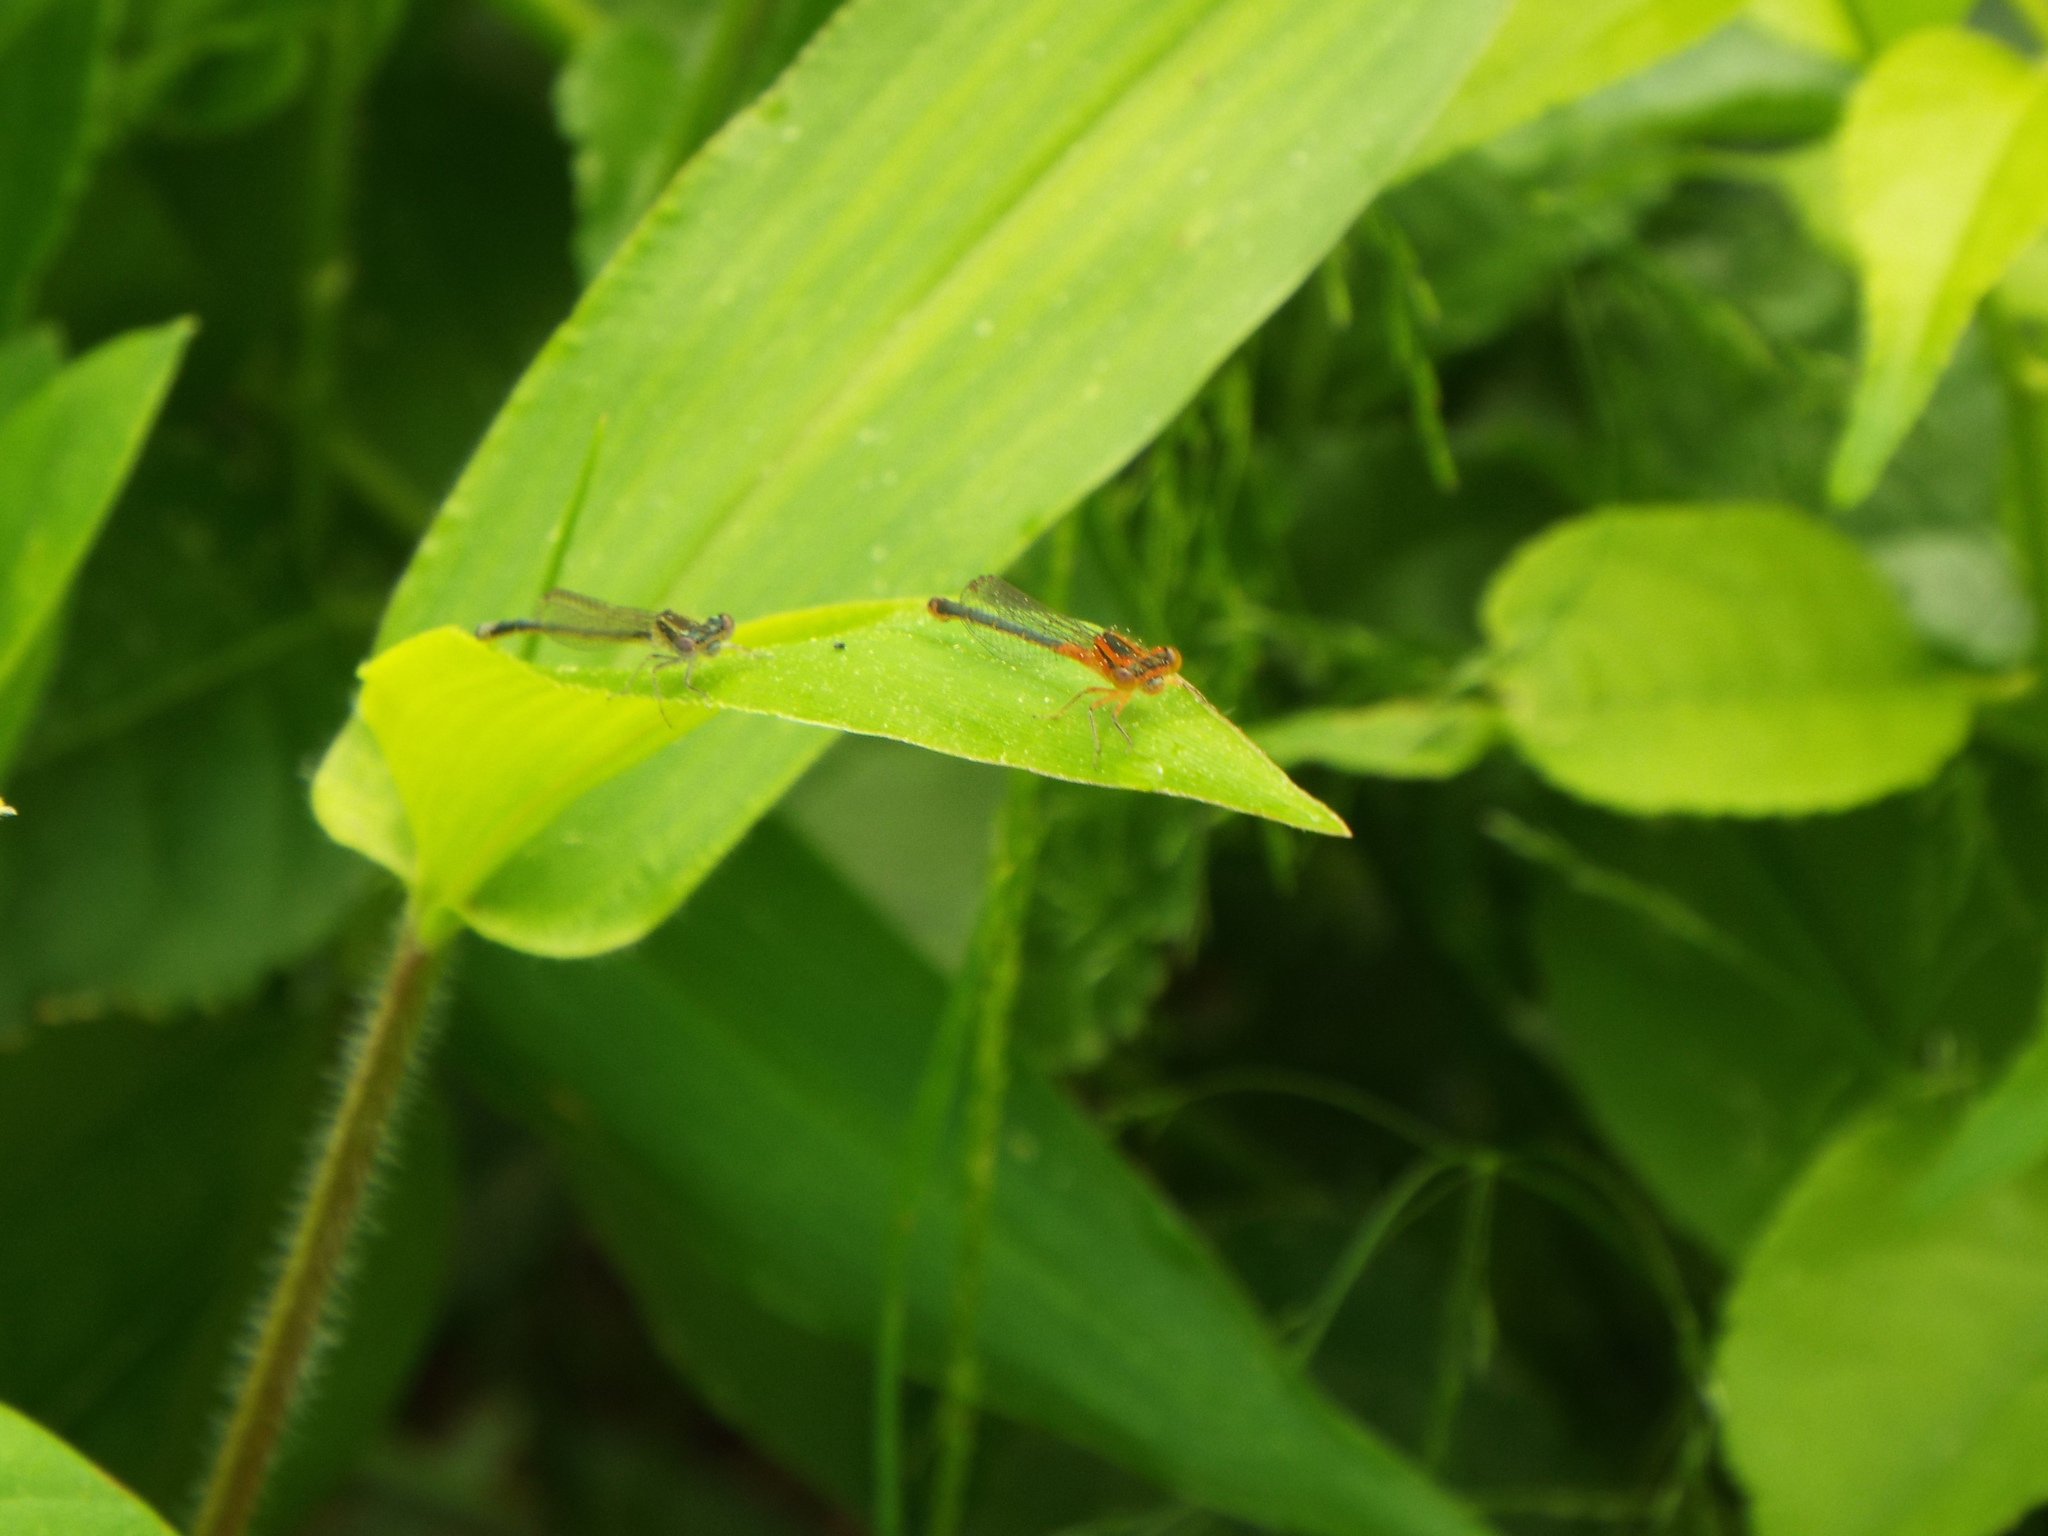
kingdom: Animalia
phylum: Arthropoda
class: Insecta
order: Odonata
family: Coenagrionidae
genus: Ischnura
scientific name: Ischnura verticalis
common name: Eastern forktail
